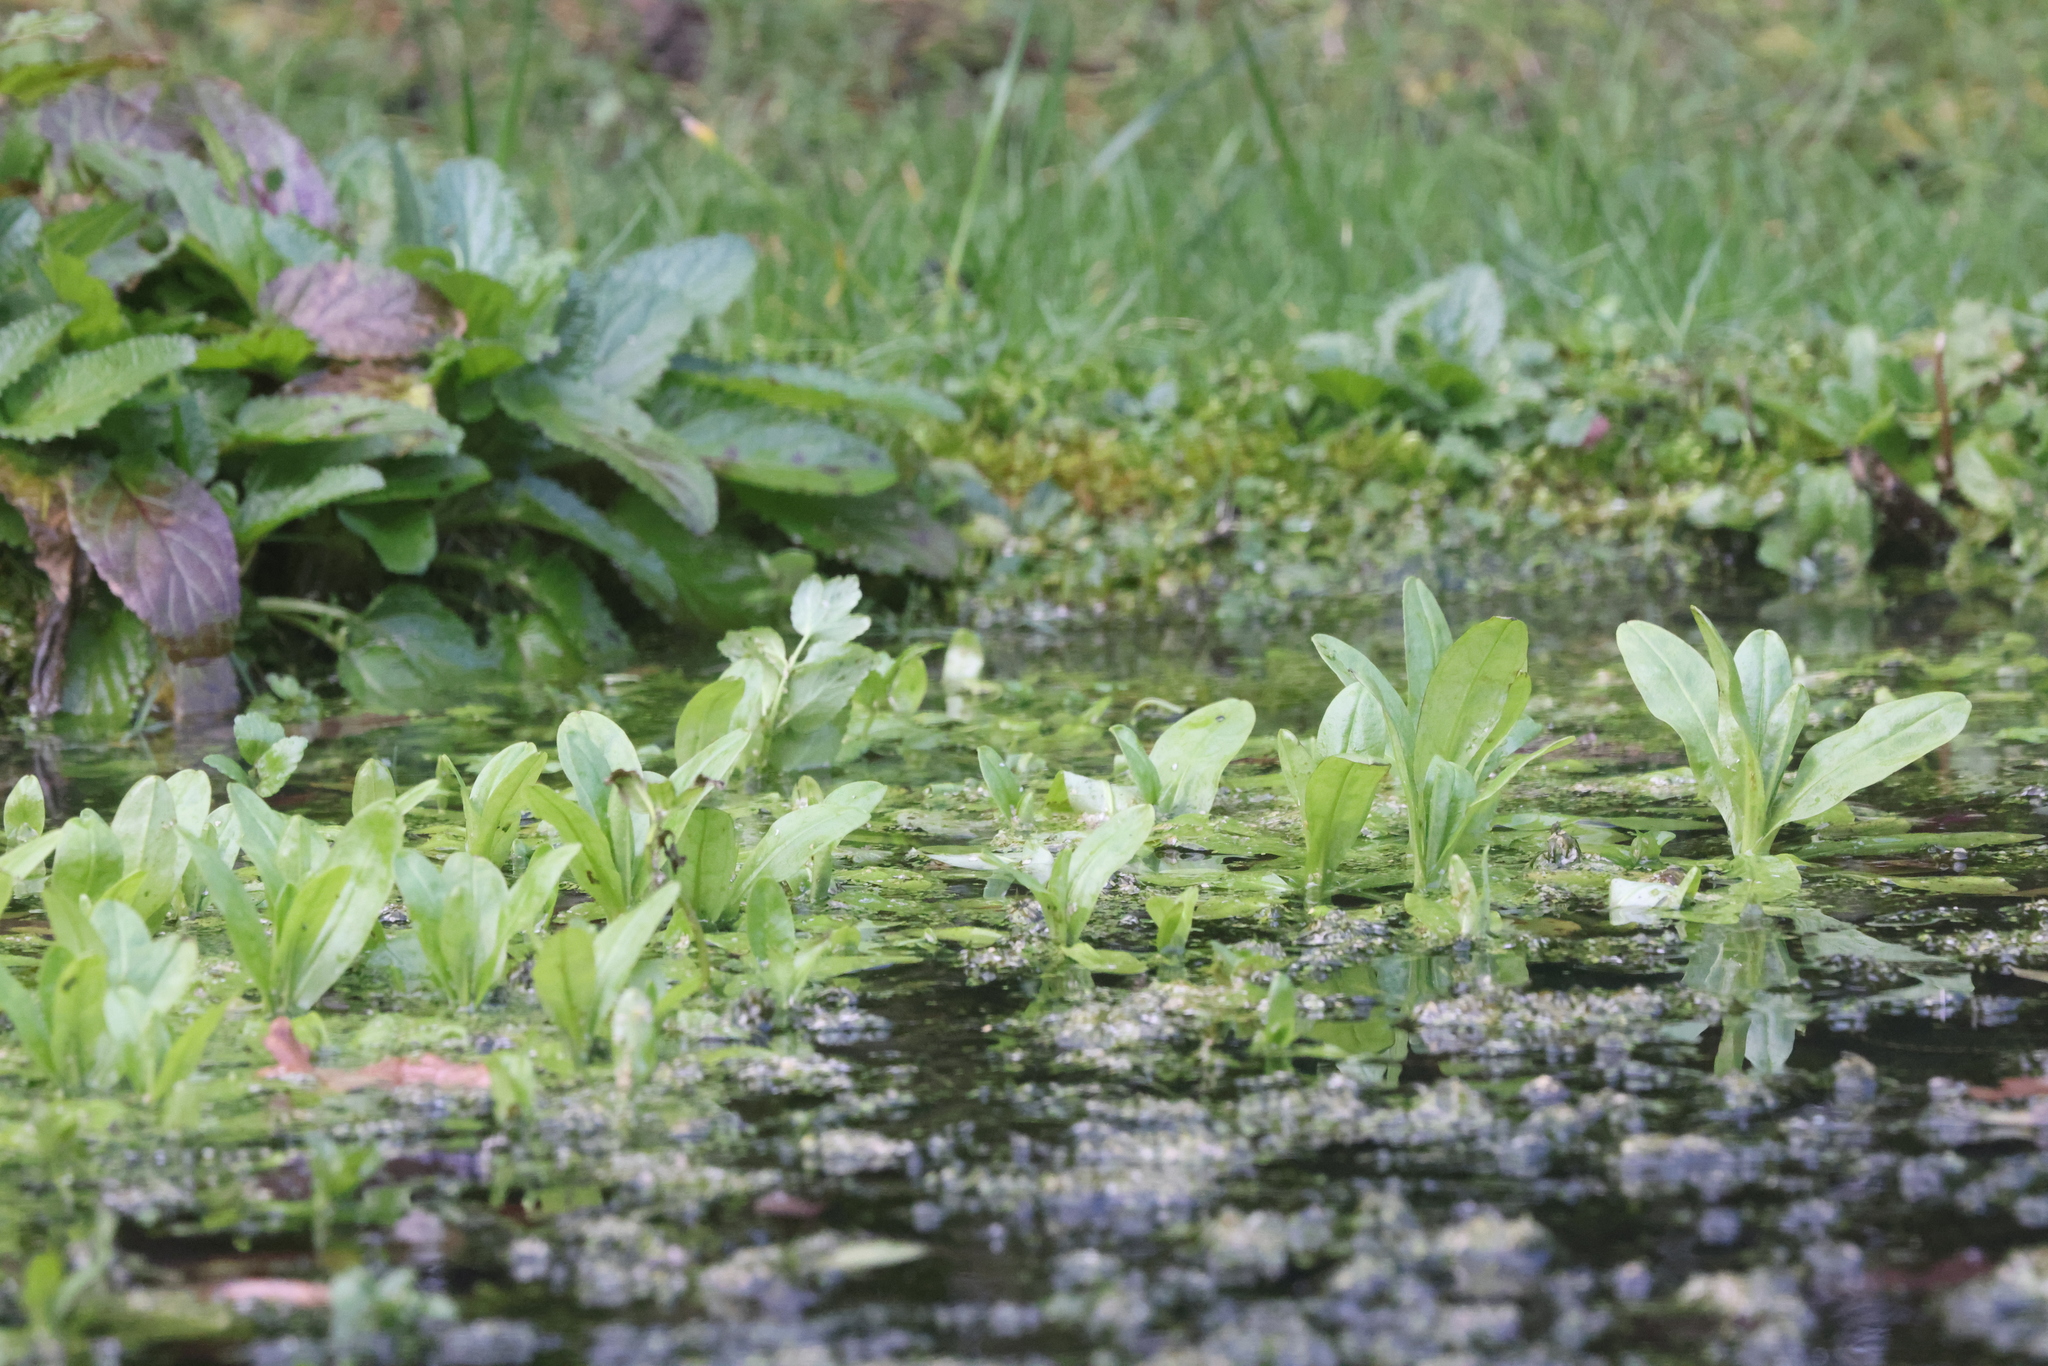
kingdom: Plantae
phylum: Tracheophyta
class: Magnoliopsida
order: Boraginales
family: Boraginaceae
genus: Myosotis
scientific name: Myosotis scorpioides
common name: Water forget-me-not
